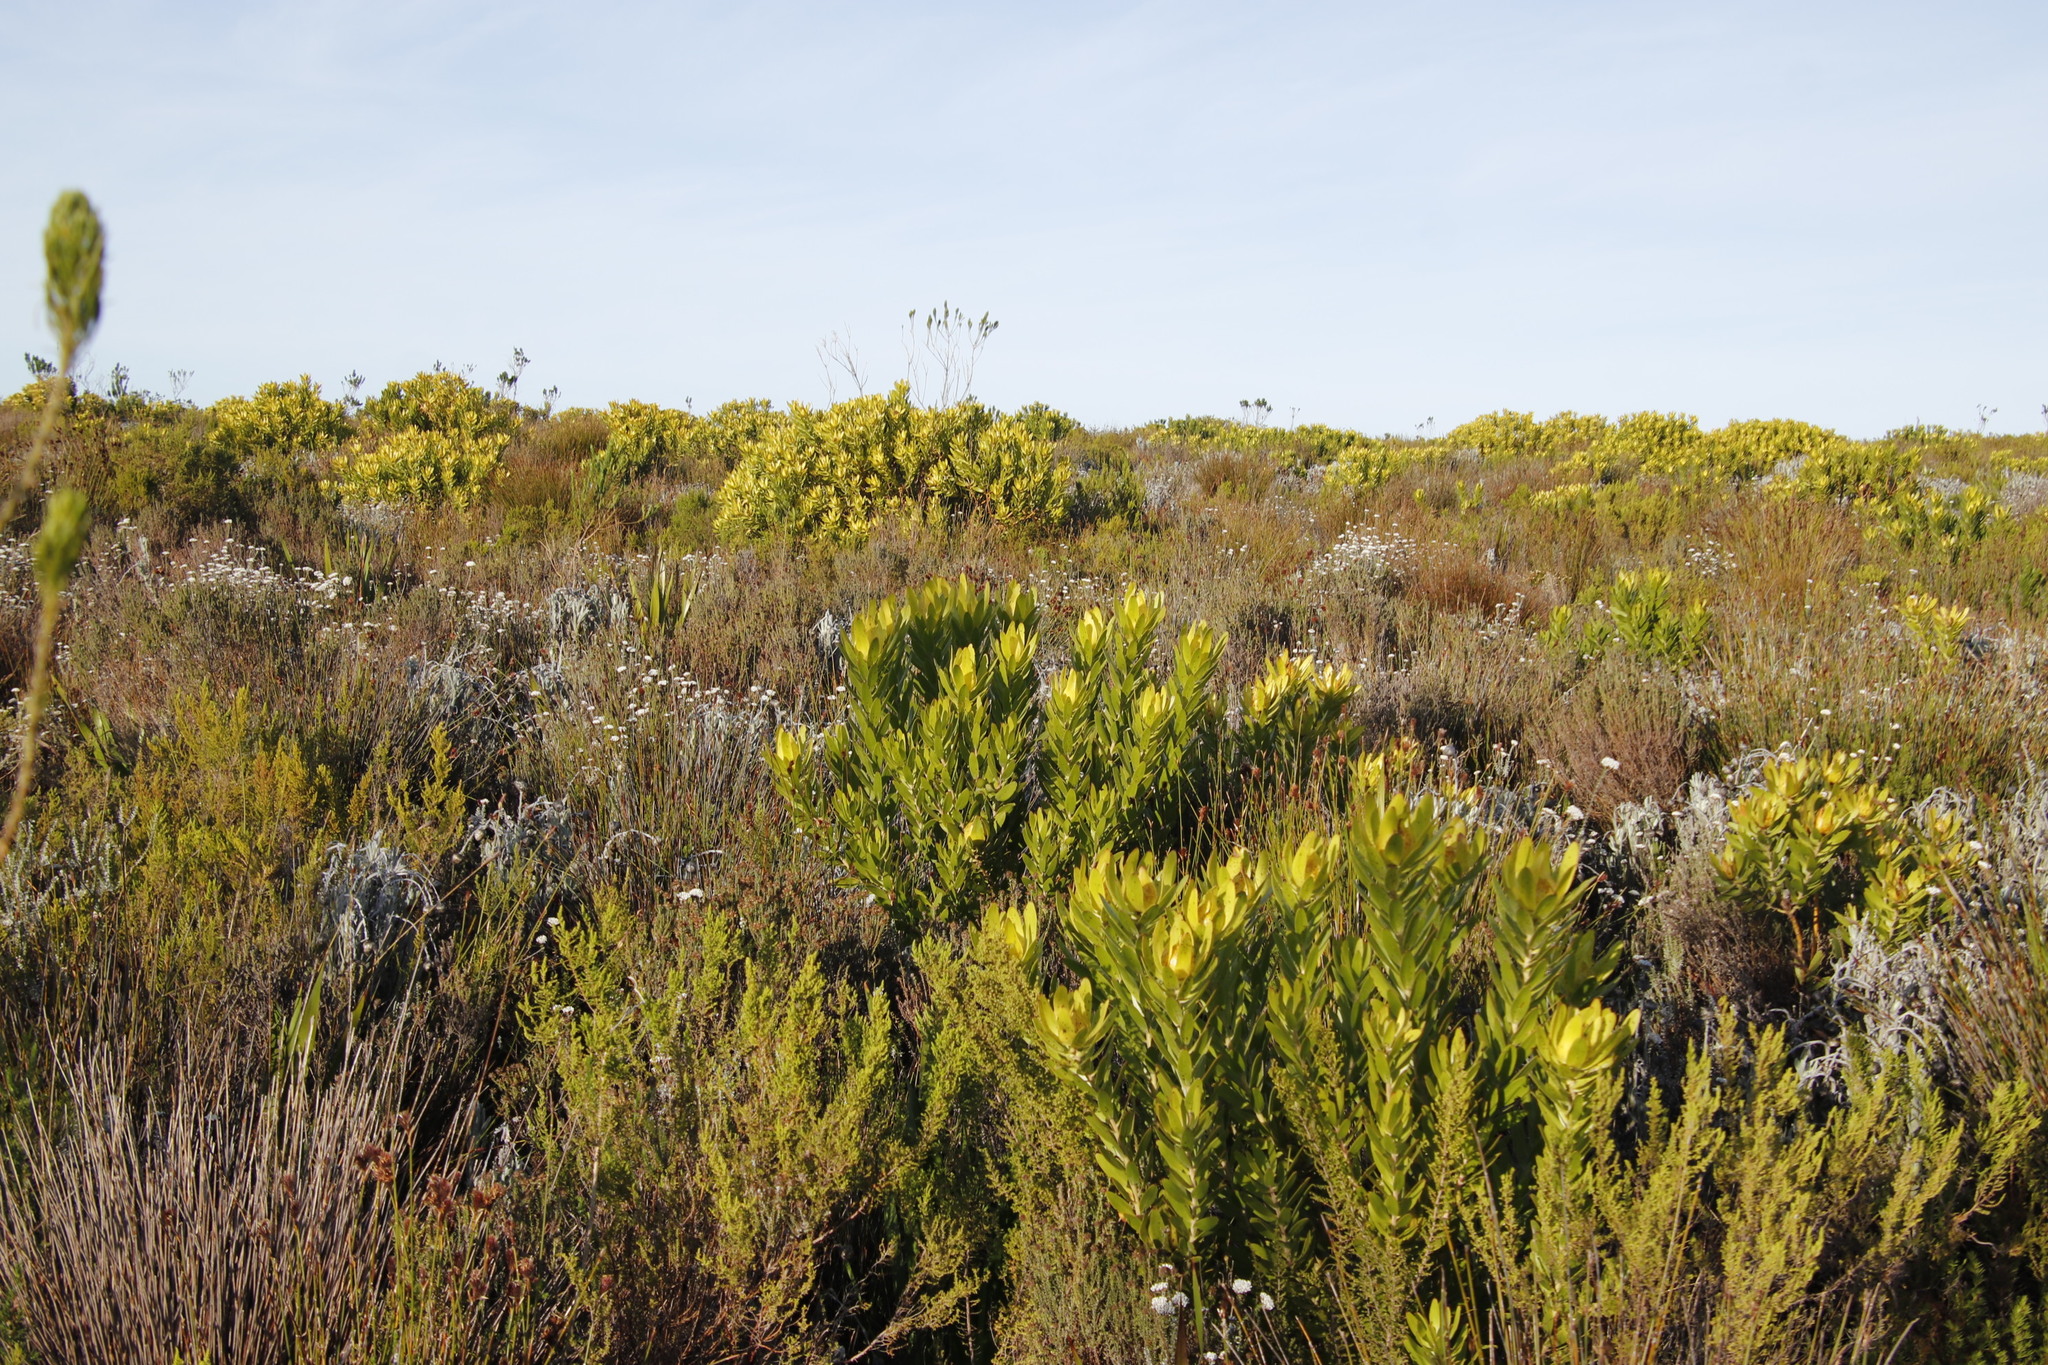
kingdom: Plantae
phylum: Tracheophyta
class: Magnoliopsida
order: Proteales
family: Proteaceae
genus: Leucadendron
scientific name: Leucadendron laureolum
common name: Golden sunshinebush
